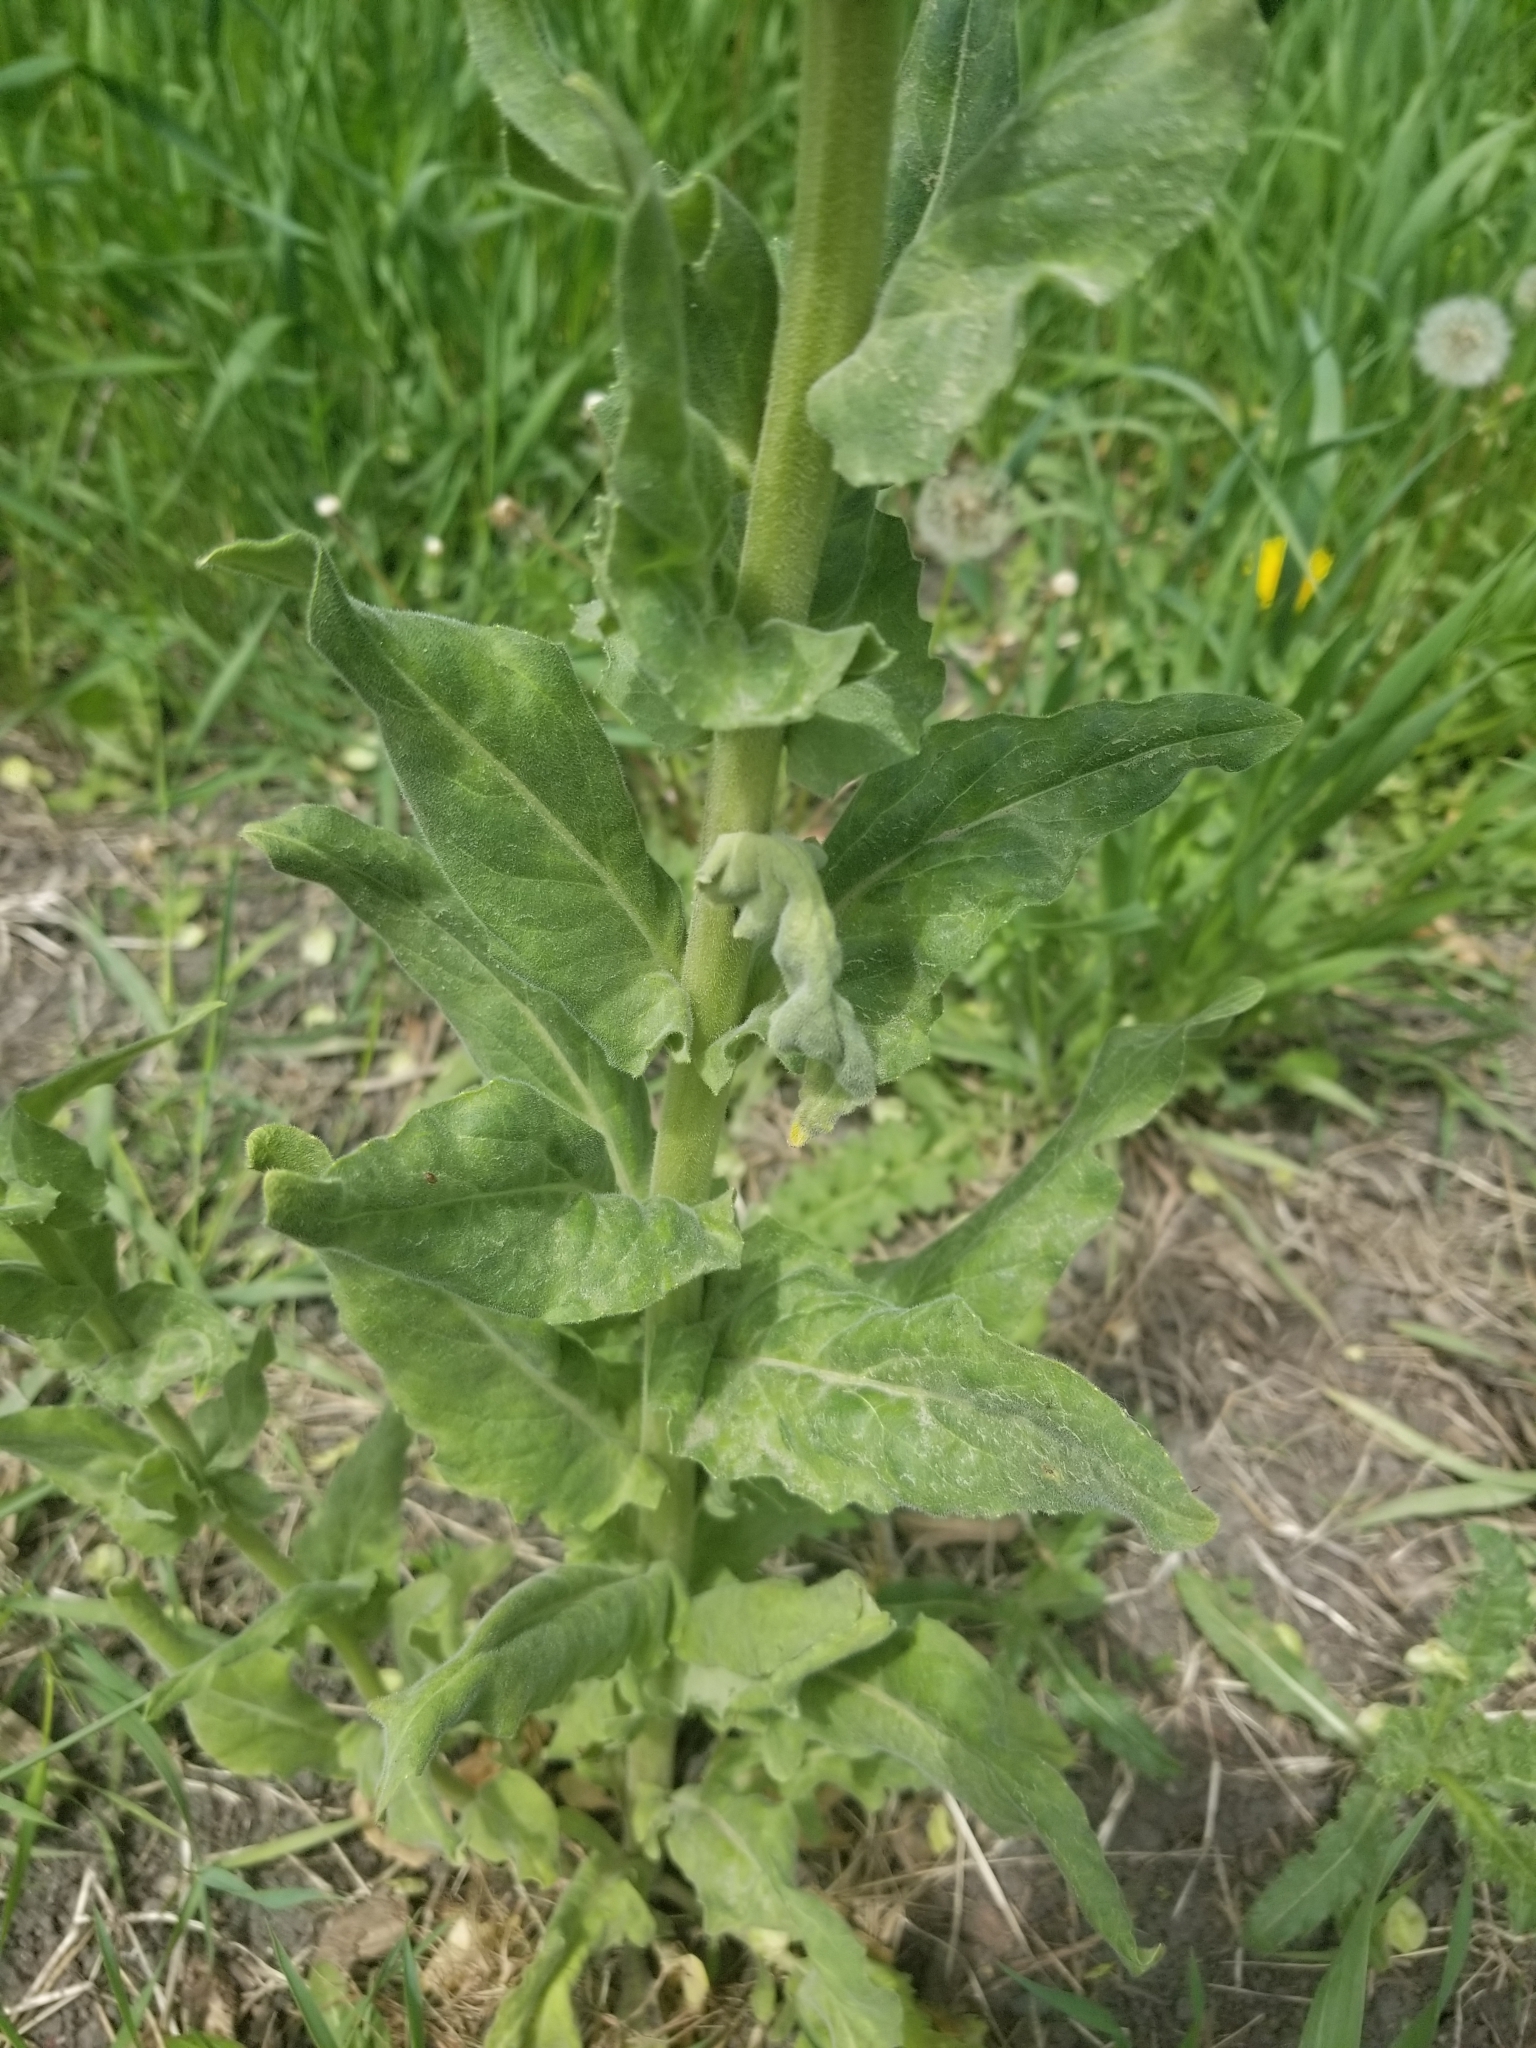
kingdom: Plantae
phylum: Tracheophyta
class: Magnoliopsida
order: Brassicales
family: Brassicaceae
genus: Hesperis
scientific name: Hesperis matronalis
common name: Dame's-violet
